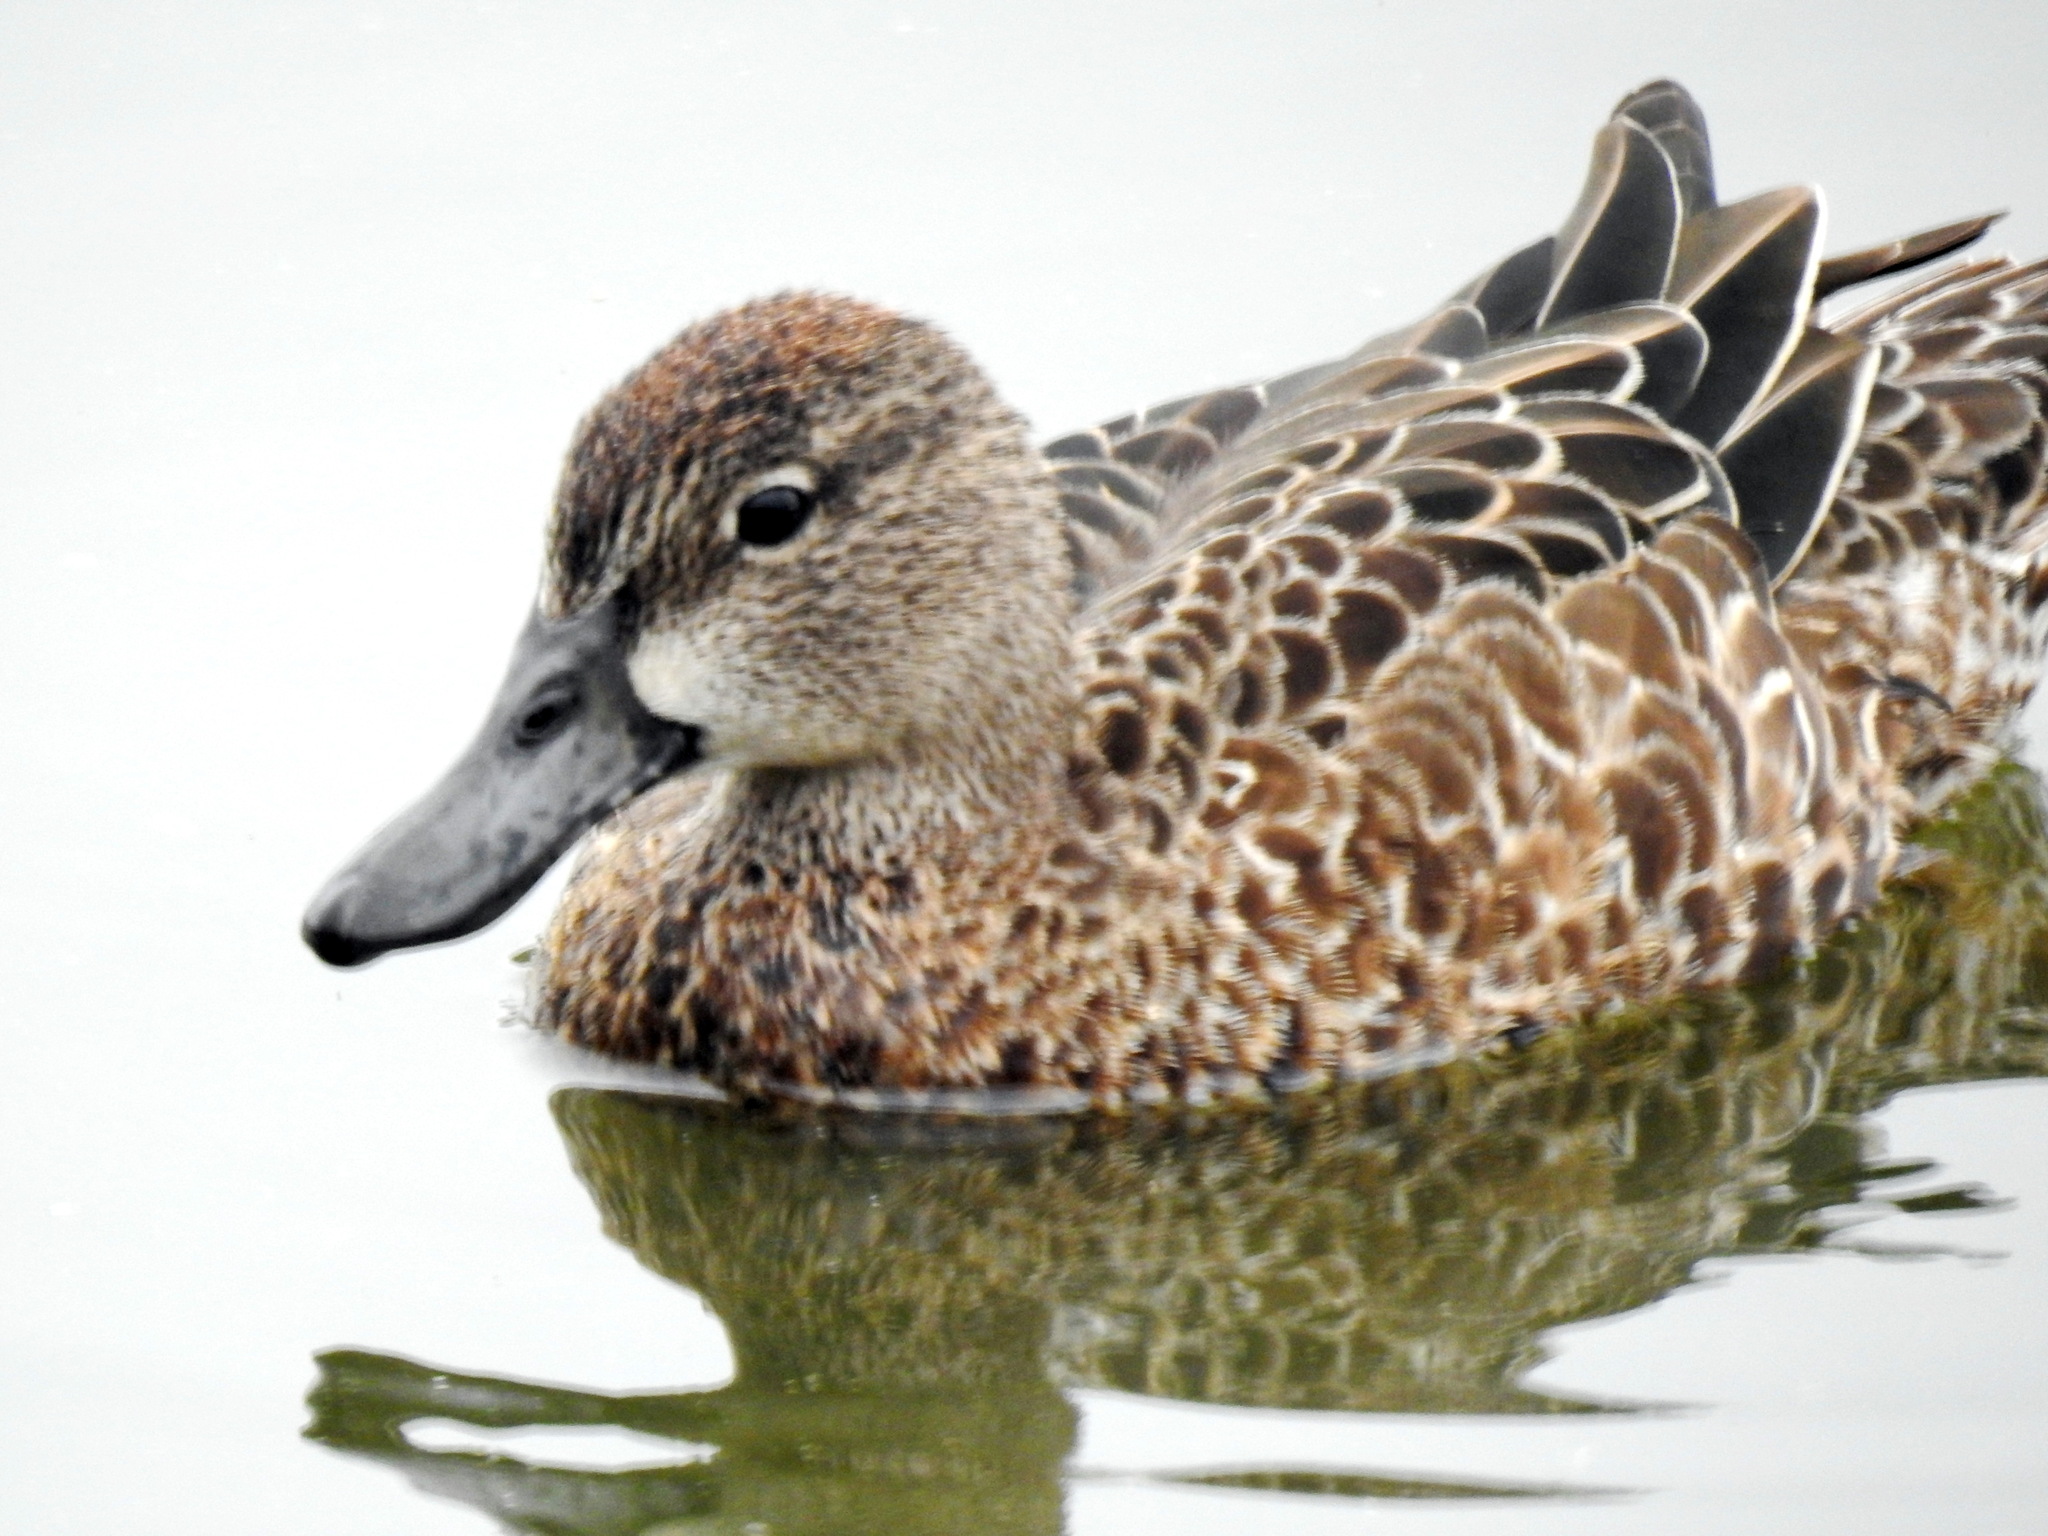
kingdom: Animalia
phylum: Chordata
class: Aves
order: Anseriformes
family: Anatidae
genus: Spatula
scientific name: Spatula discors
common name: Blue-winged teal
